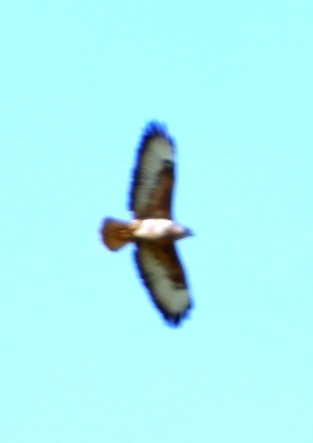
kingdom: Animalia
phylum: Chordata
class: Aves
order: Accipitriformes
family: Accipitridae
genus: Buteo
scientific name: Buteo rufofuscus
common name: Jackal buzzard
